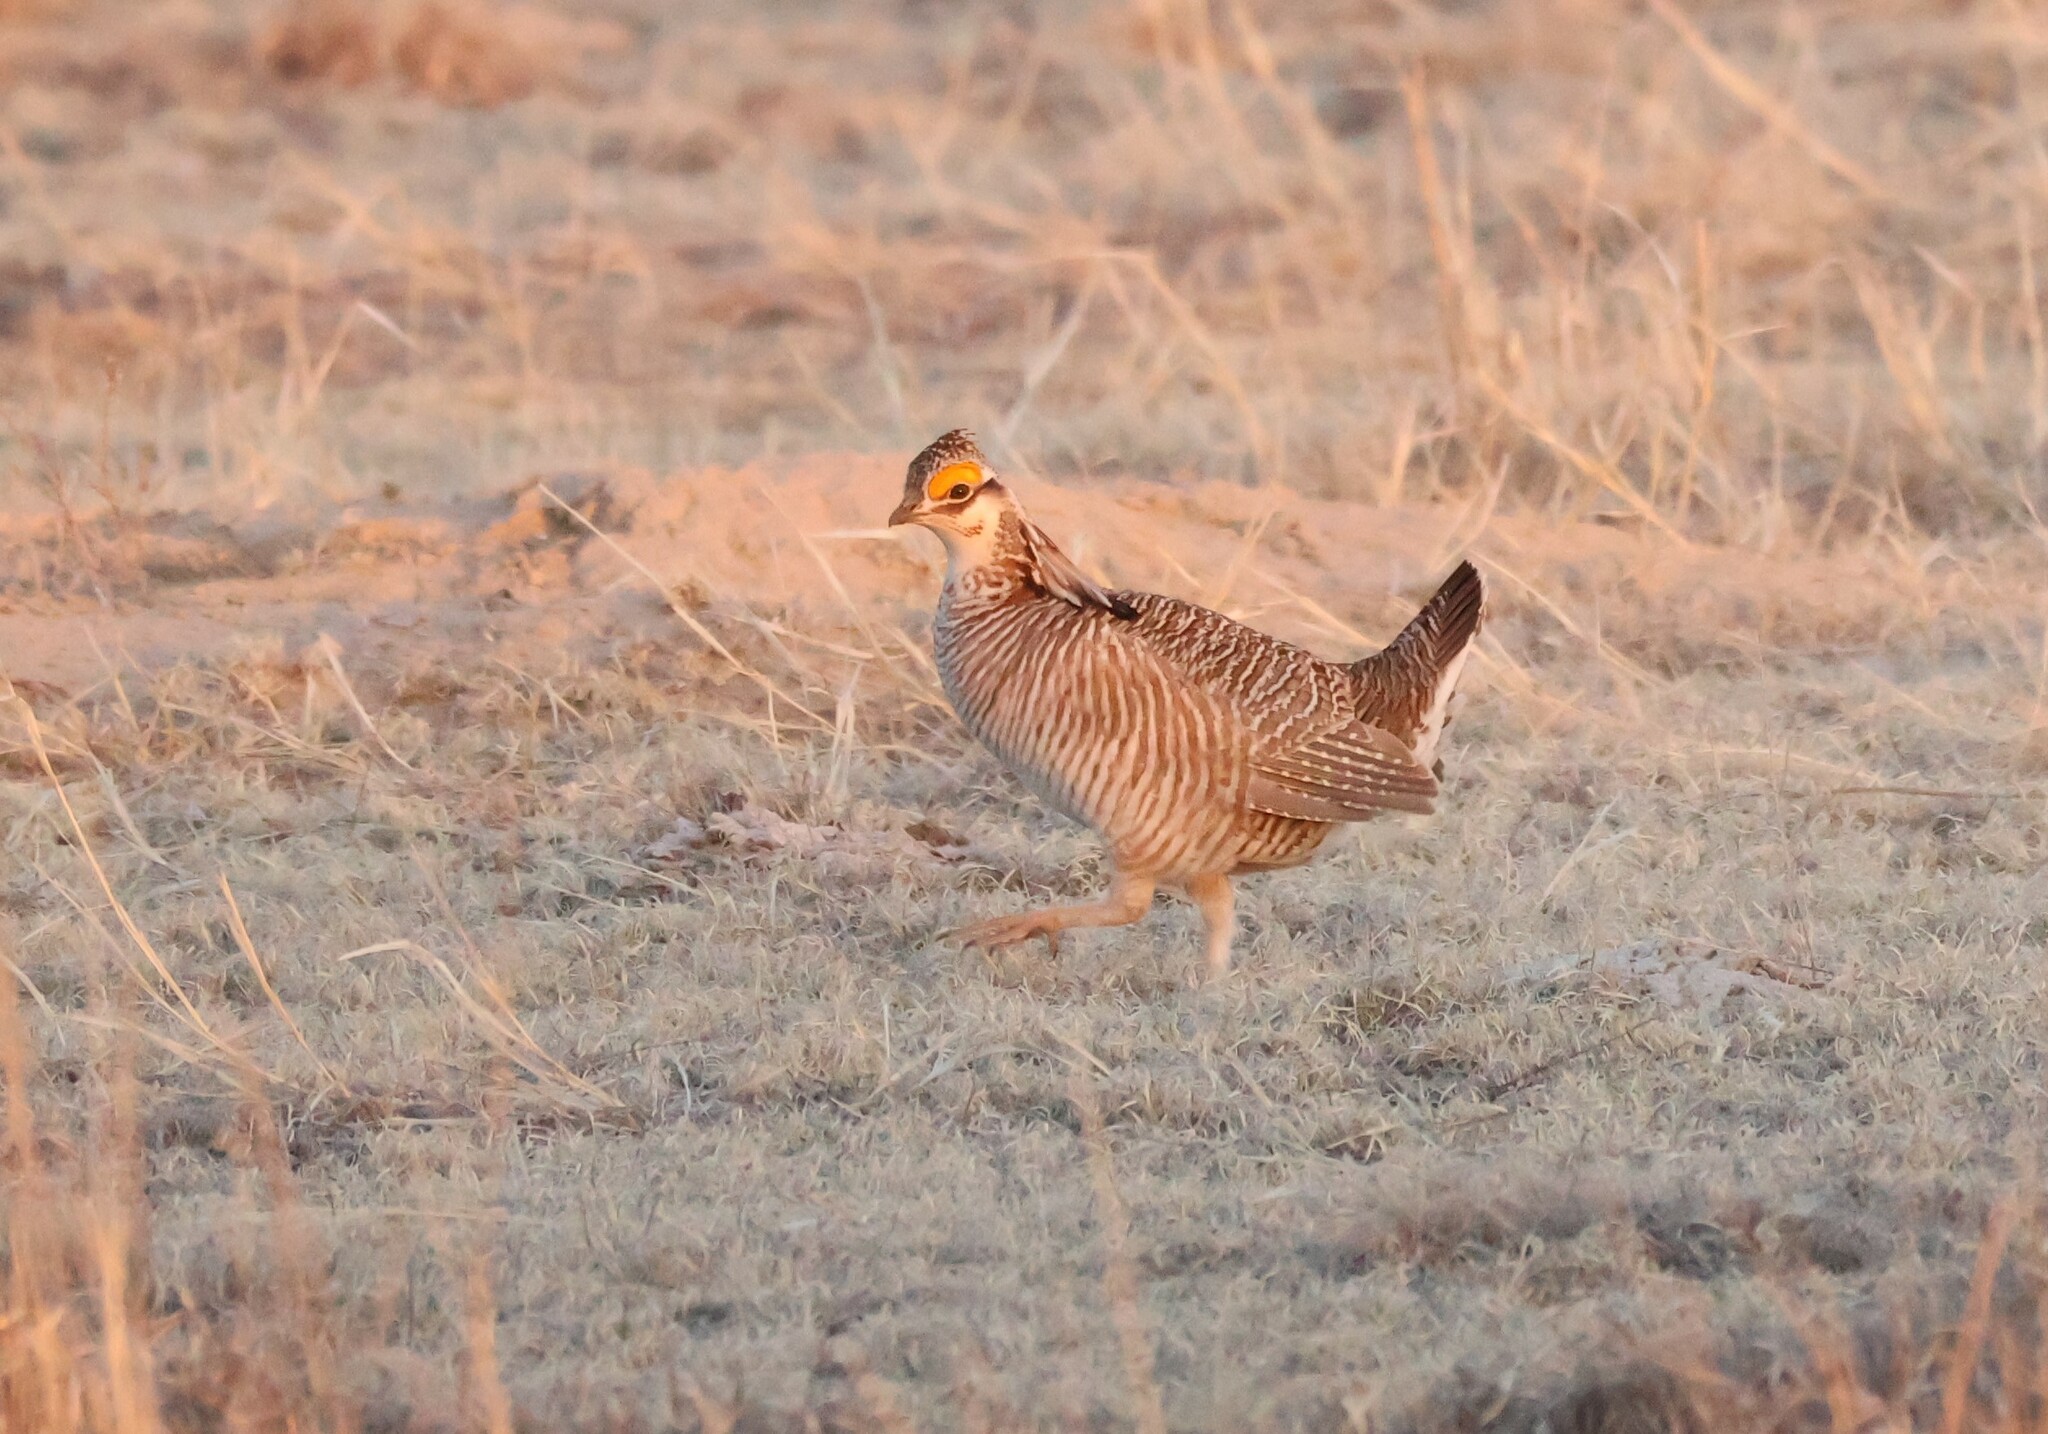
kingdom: Animalia
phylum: Chordata
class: Aves
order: Galliformes
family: Phasianidae
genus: Tympanuchus
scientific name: Tympanuchus pallidicinctus
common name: Lesser prairie chicken
